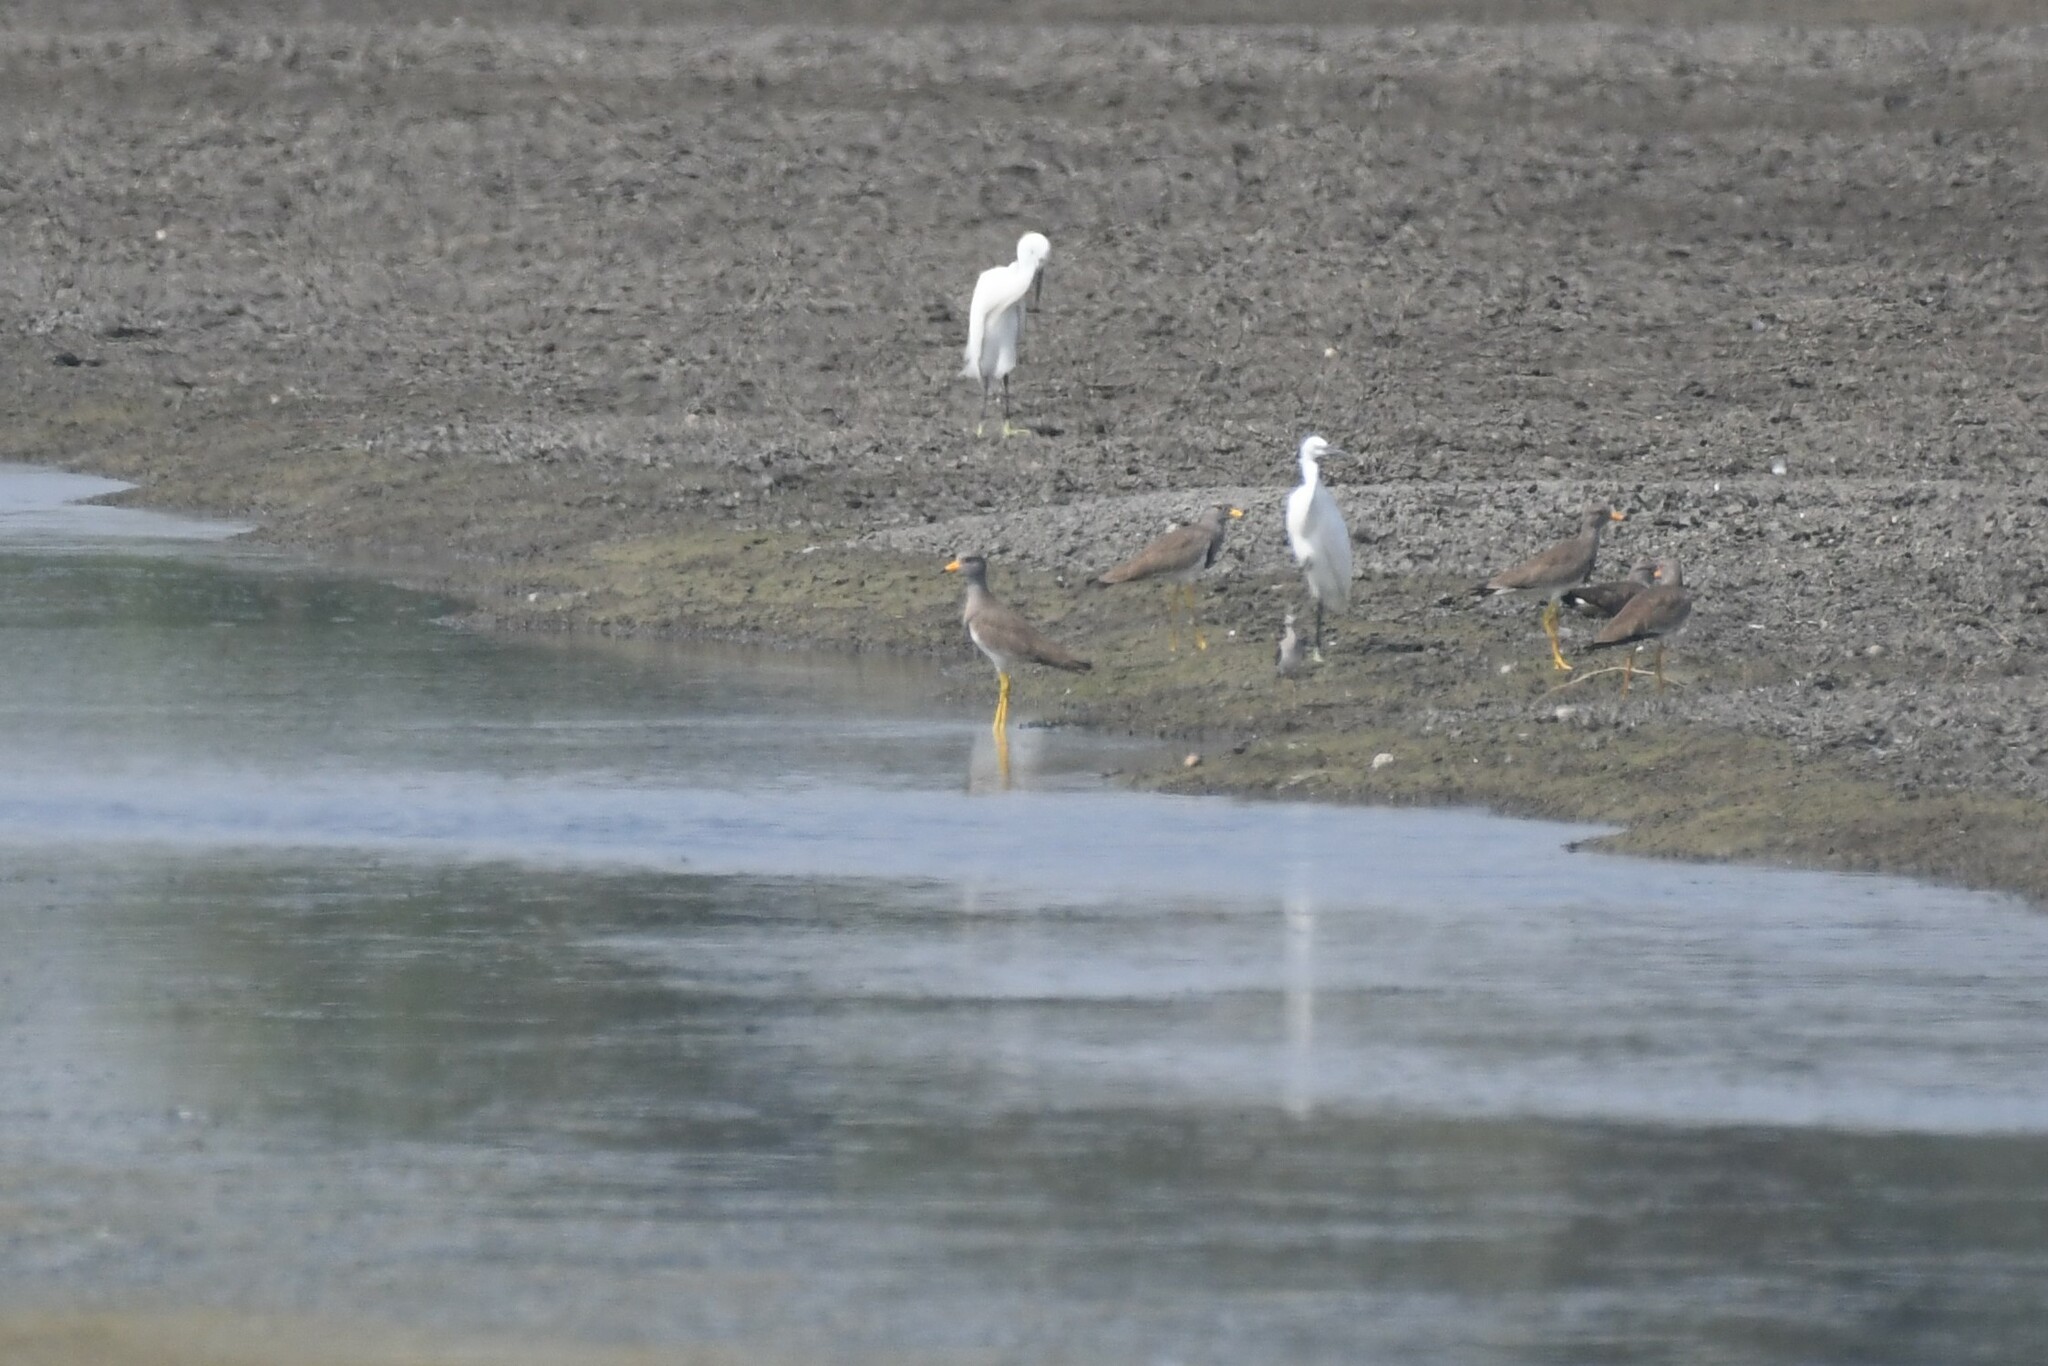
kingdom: Animalia
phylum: Chordata
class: Aves
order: Charadriiformes
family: Charadriidae
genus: Vanellus
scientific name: Vanellus cinereus
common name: Grey-headed lapwing
